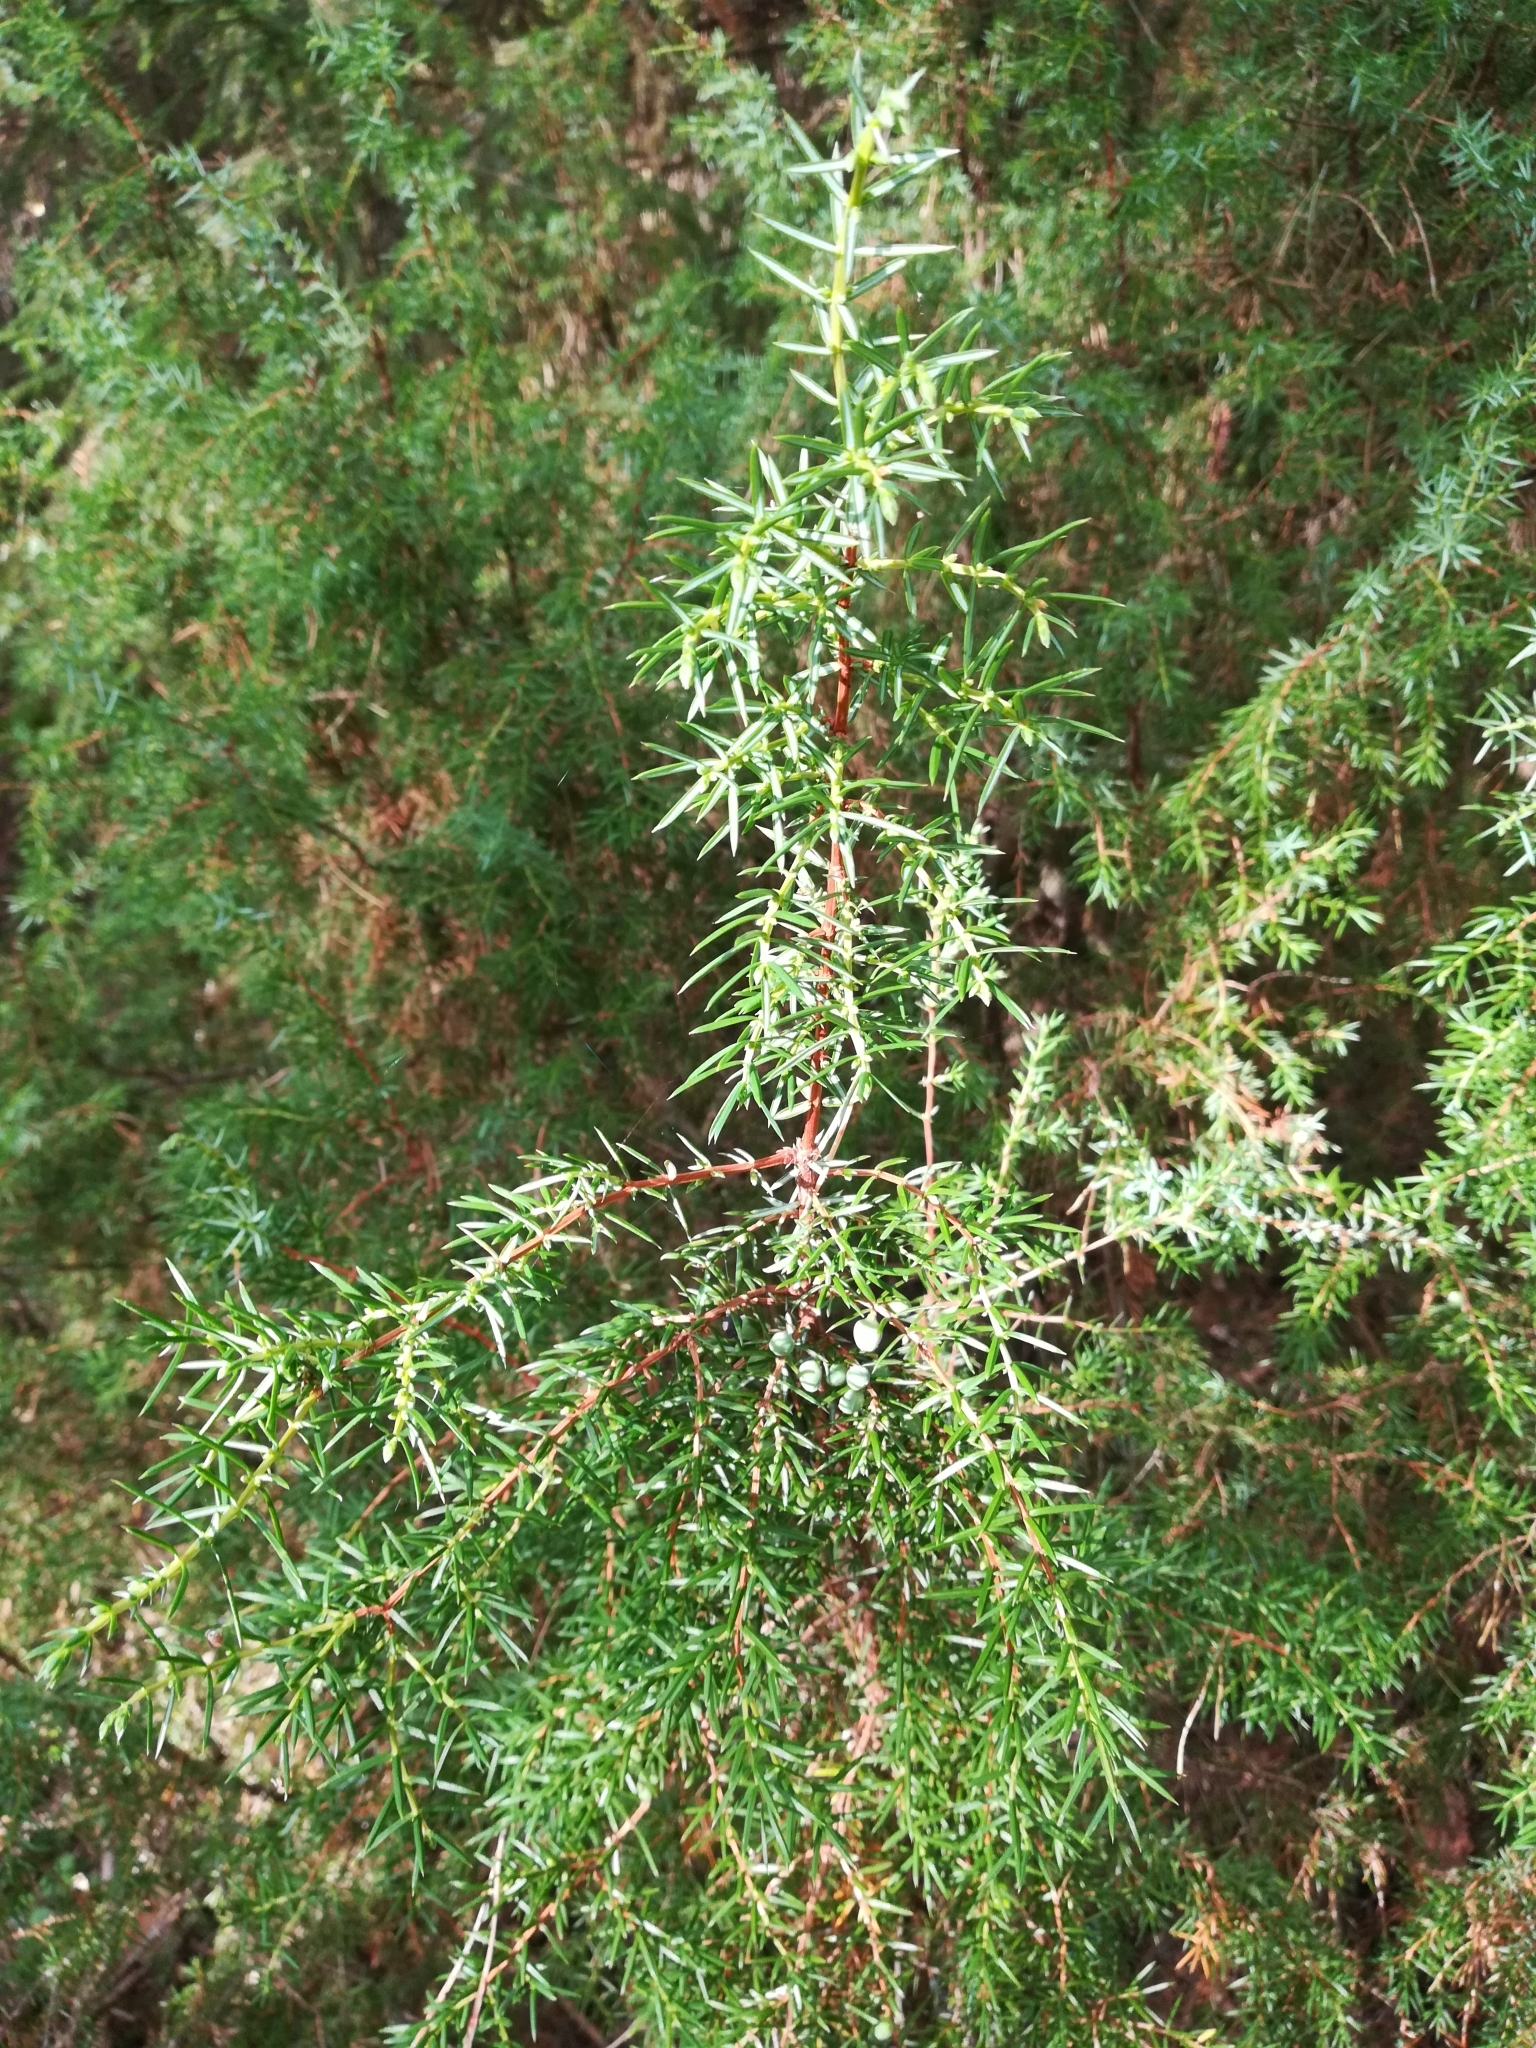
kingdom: Plantae
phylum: Tracheophyta
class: Pinopsida
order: Pinales
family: Cupressaceae
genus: Juniperus
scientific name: Juniperus communis
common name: Common juniper
